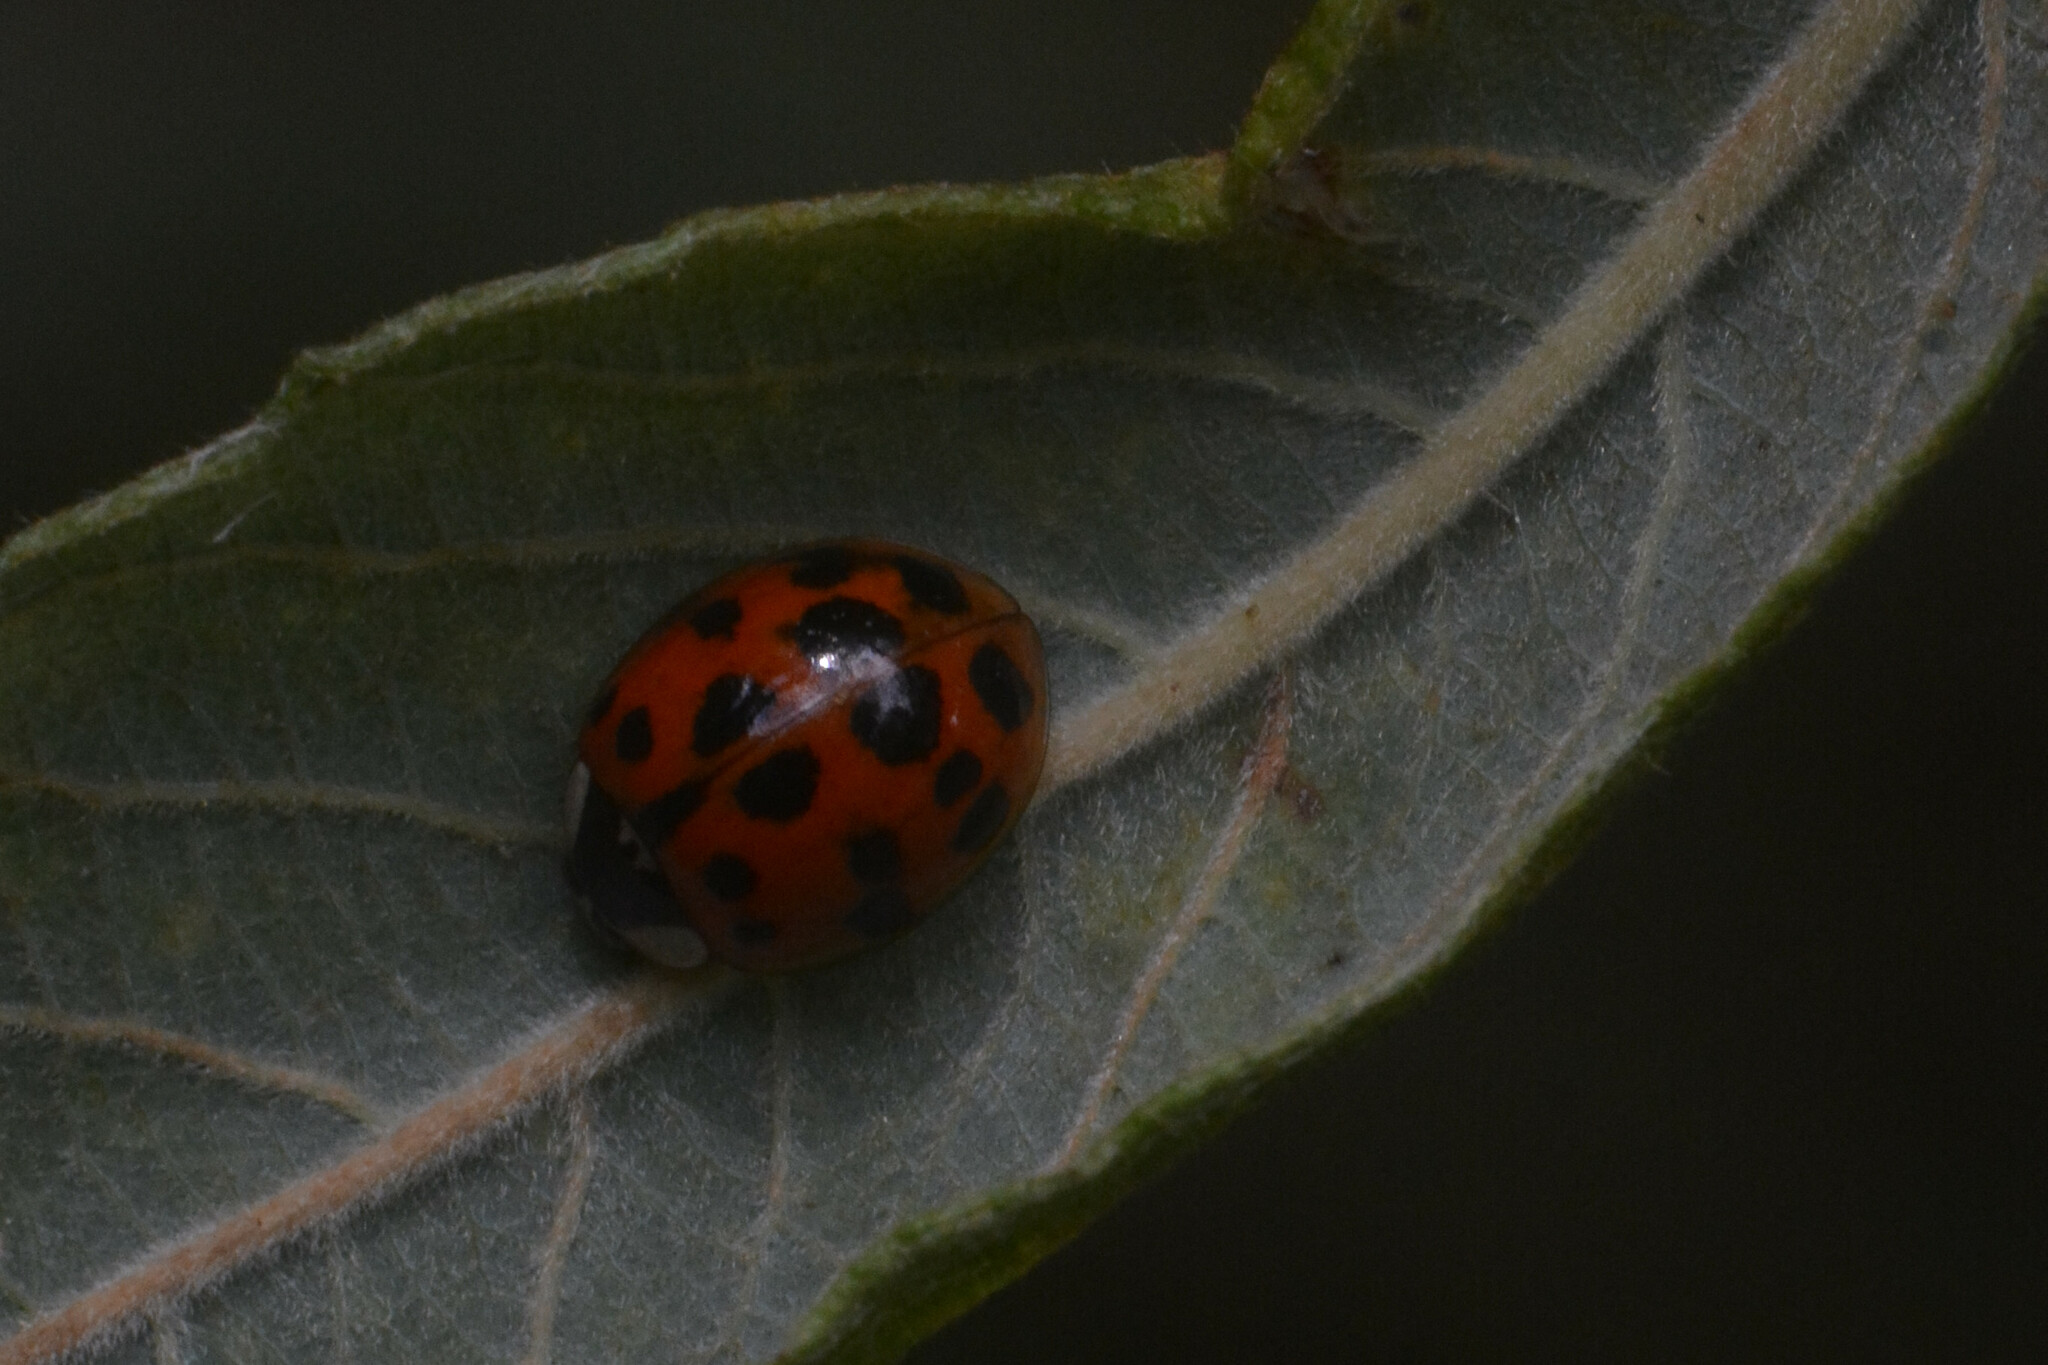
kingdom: Animalia
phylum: Arthropoda
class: Insecta
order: Coleoptera
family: Coccinellidae
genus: Harmonia
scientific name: Harmonia axyridis
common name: Harlequin ladybird
